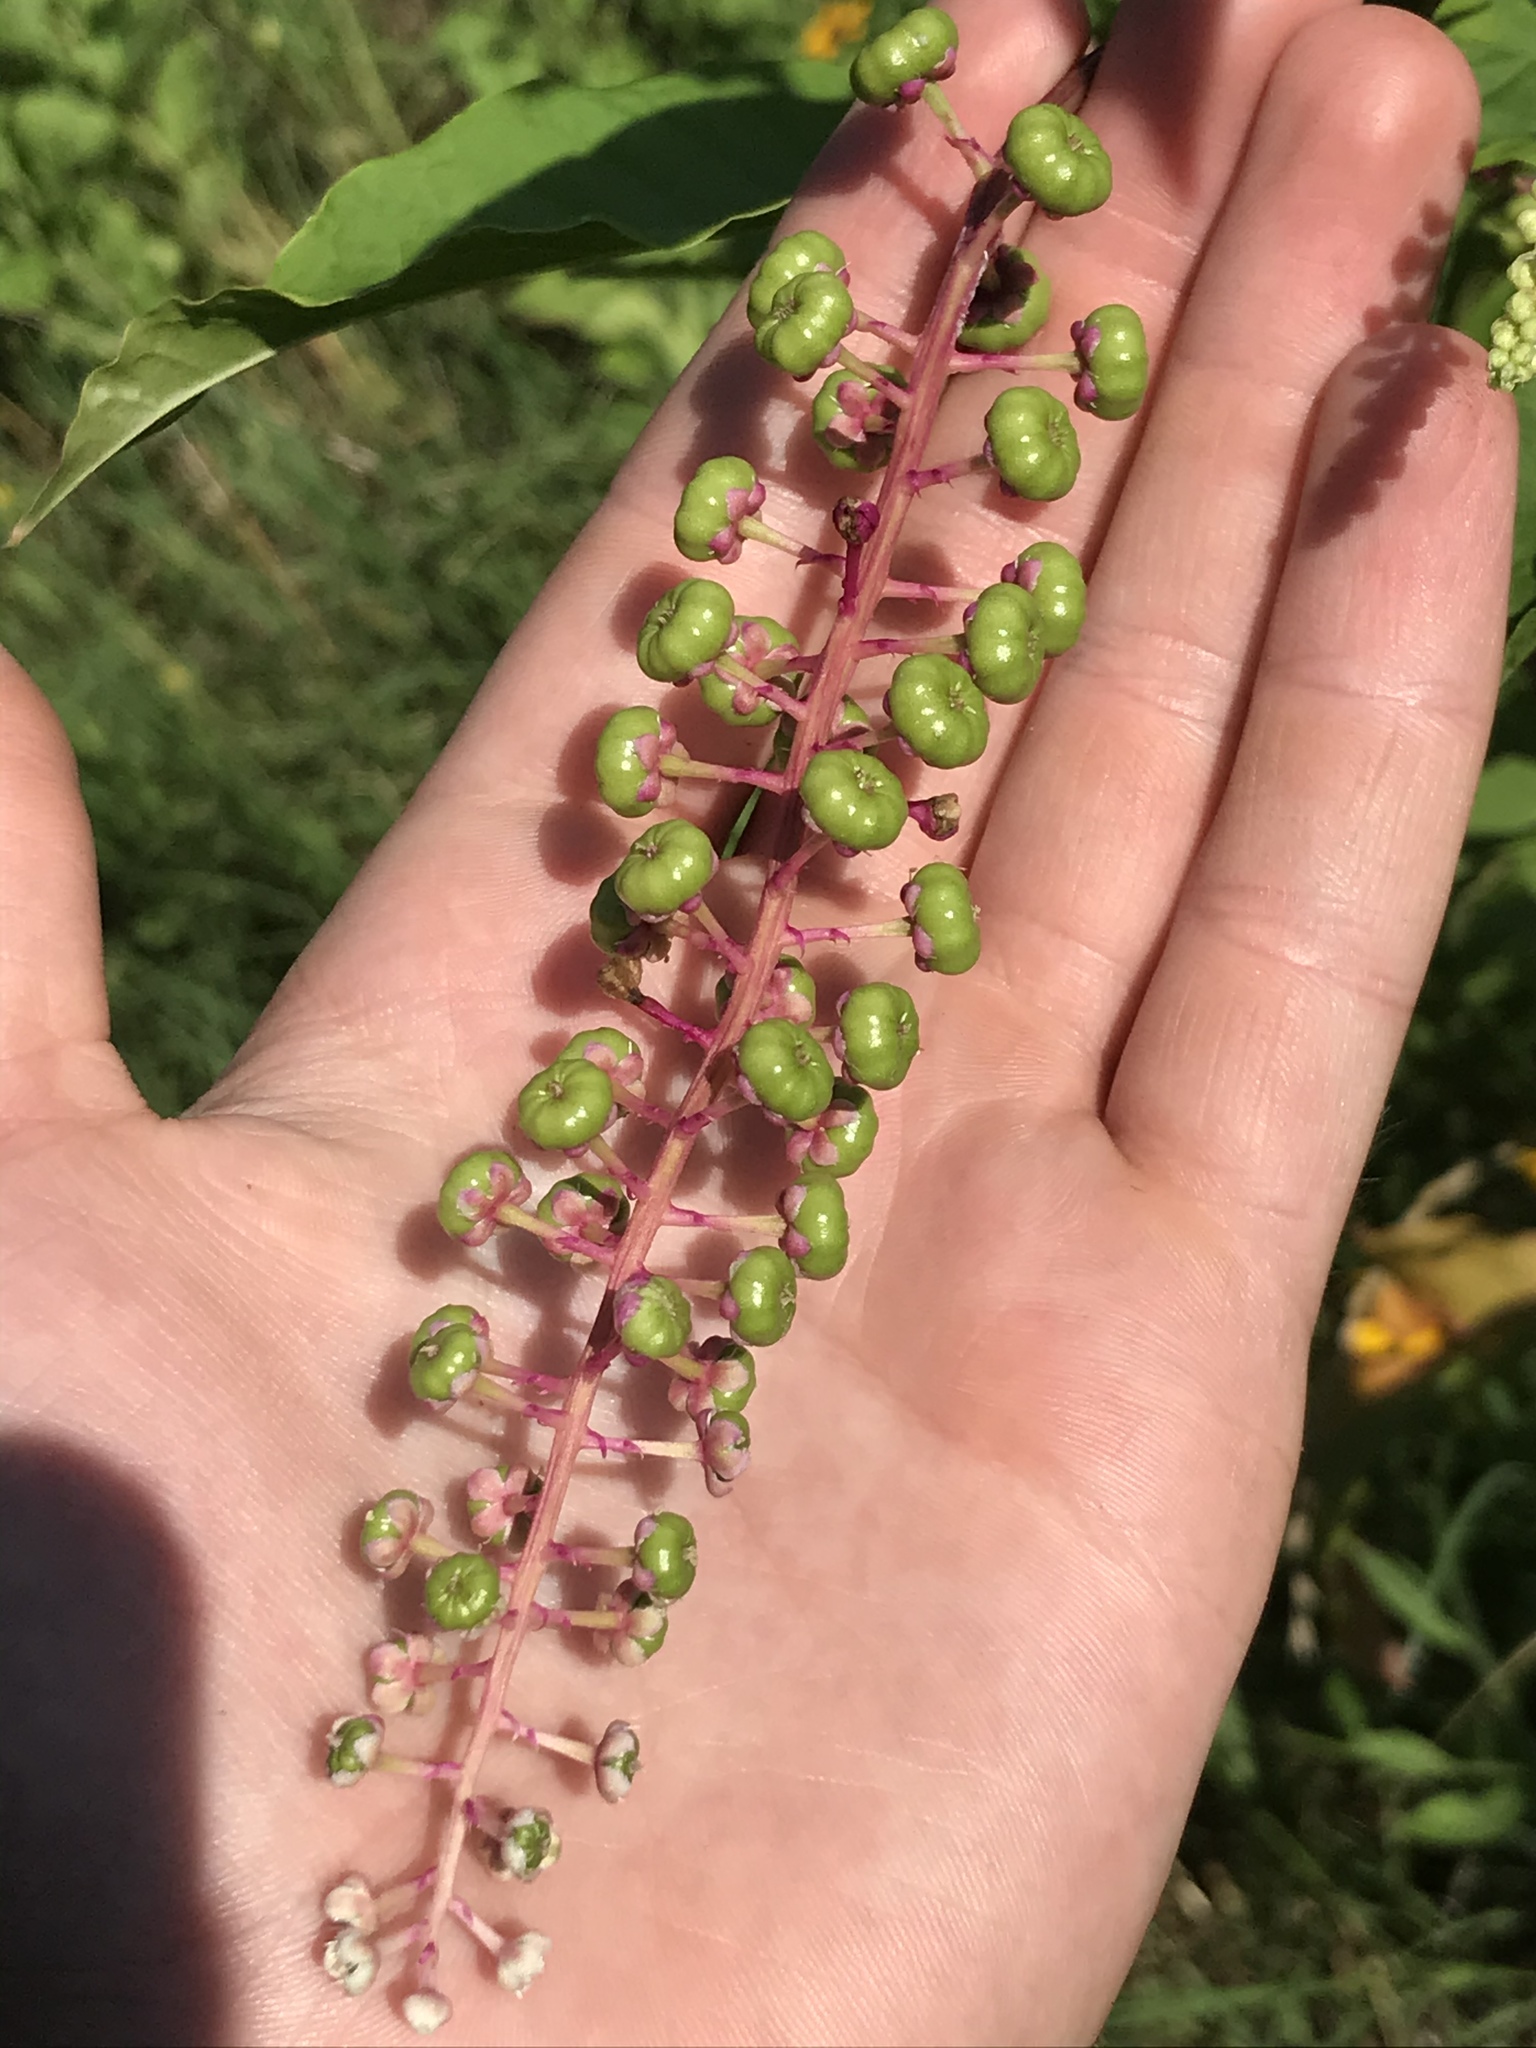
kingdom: Plantae
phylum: Tracheophyta
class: Magnoliopsida
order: Caryophyllales
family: Phytolaccaceae
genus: Phytolacca
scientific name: Phytolacca americana
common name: American pokeweed
